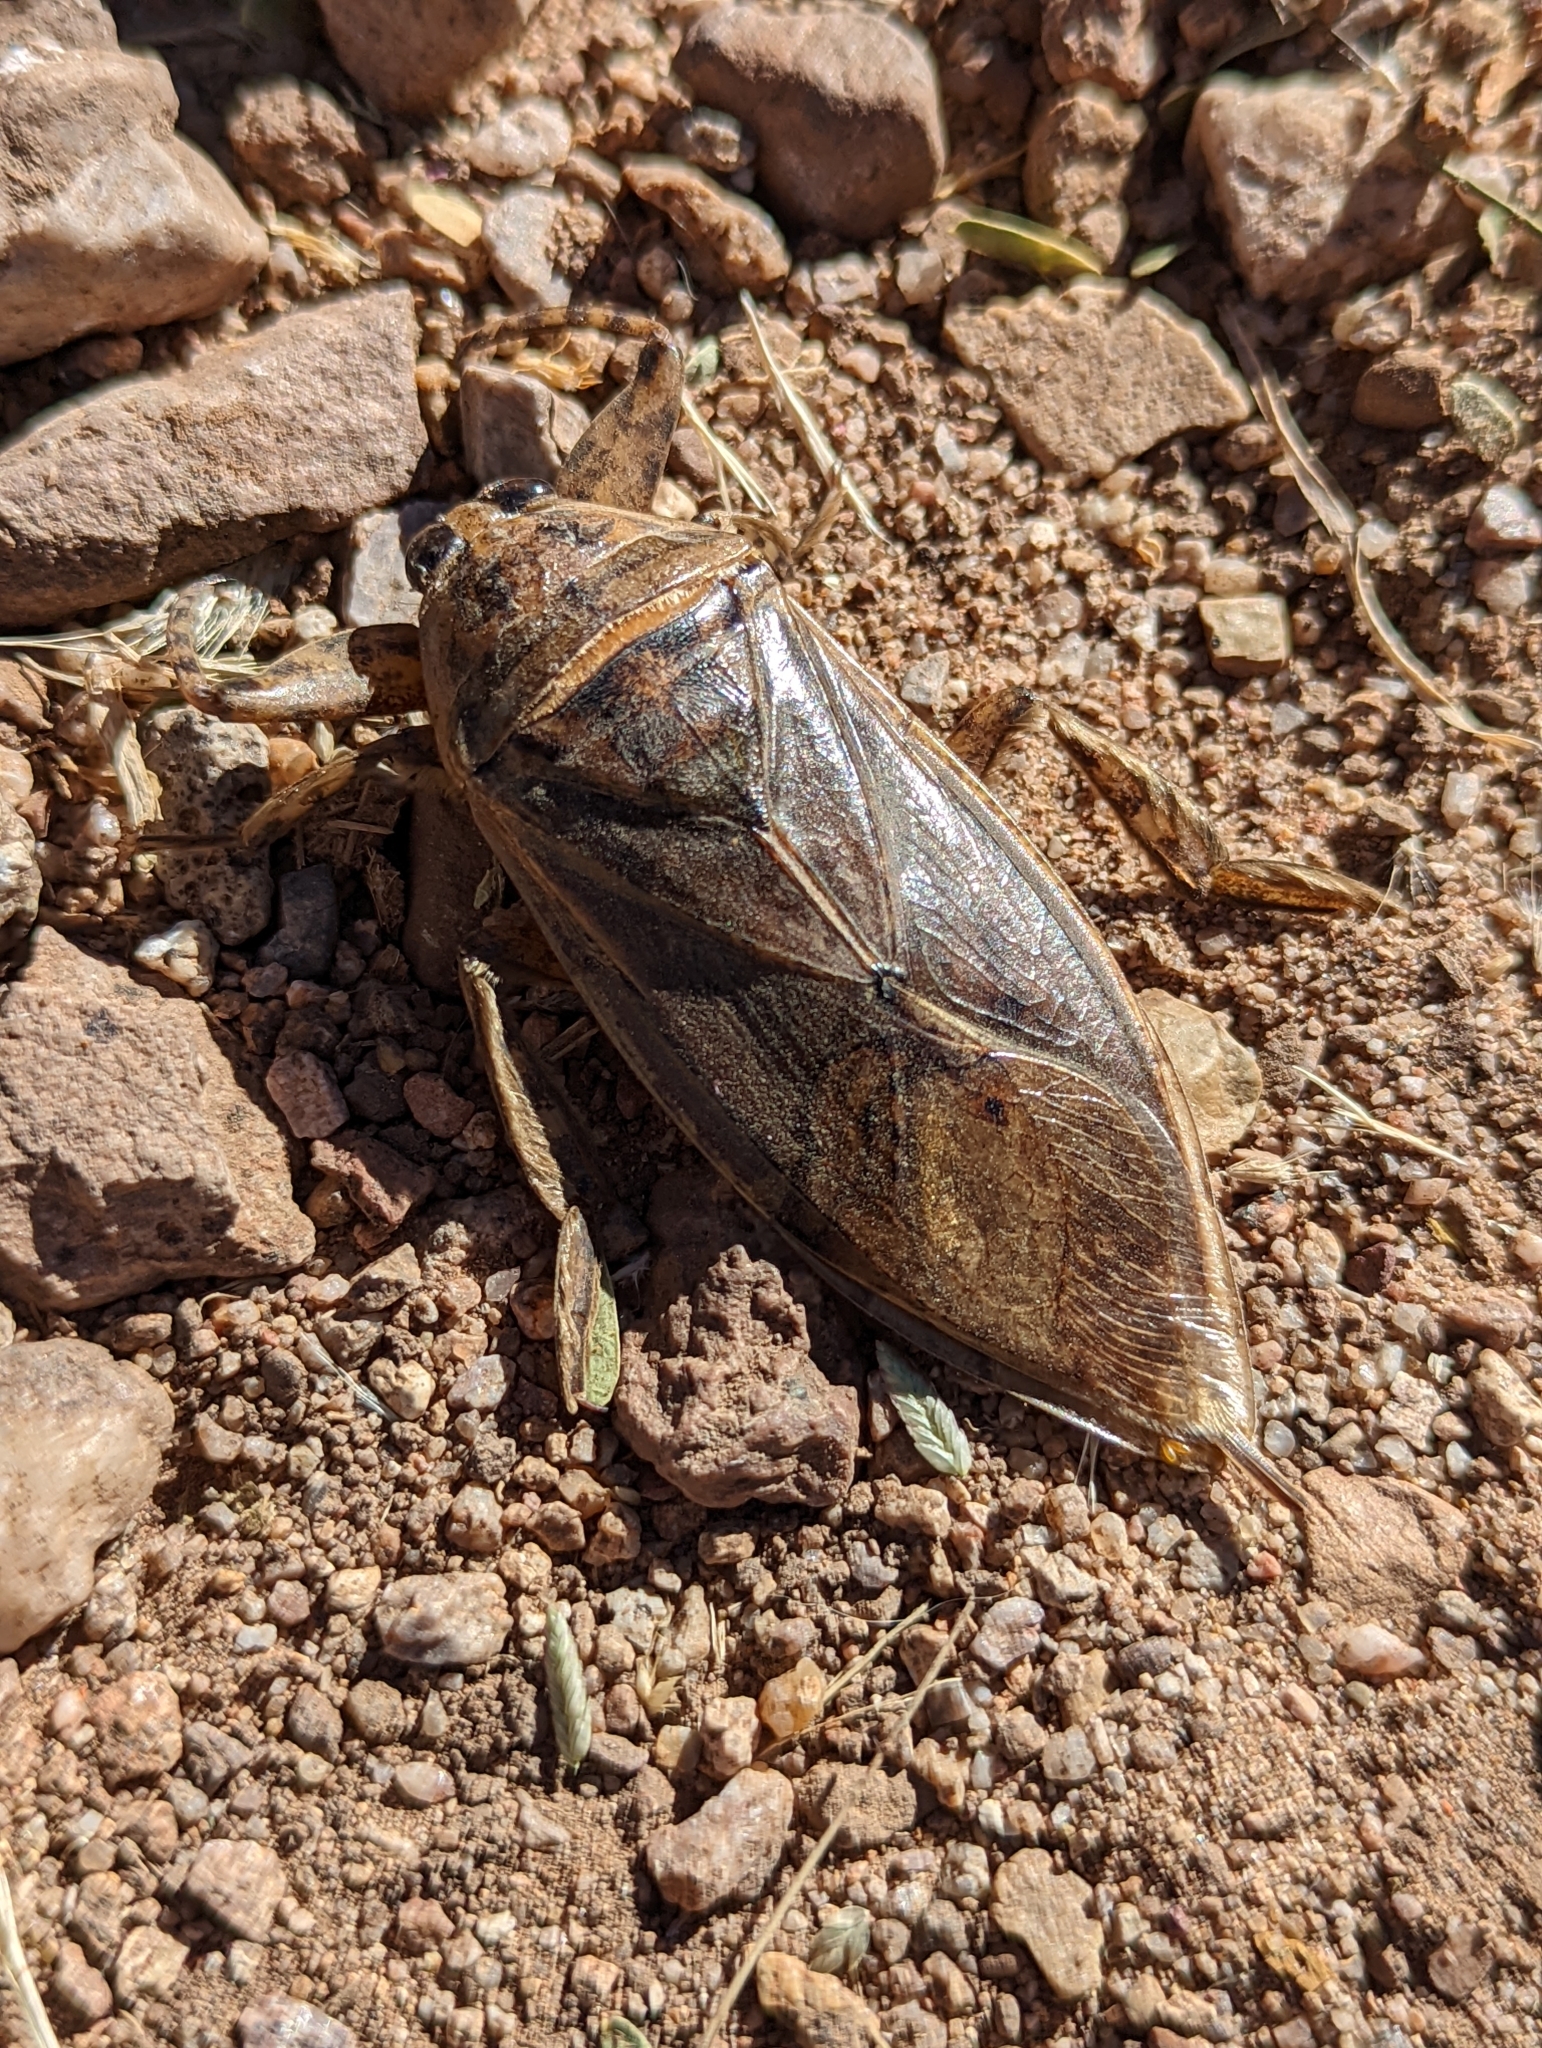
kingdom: Animalia
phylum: Arthropoda
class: Insecta
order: Hemiptera
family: Belostomatidae
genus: Lethocerus
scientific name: Lethocerus medius
